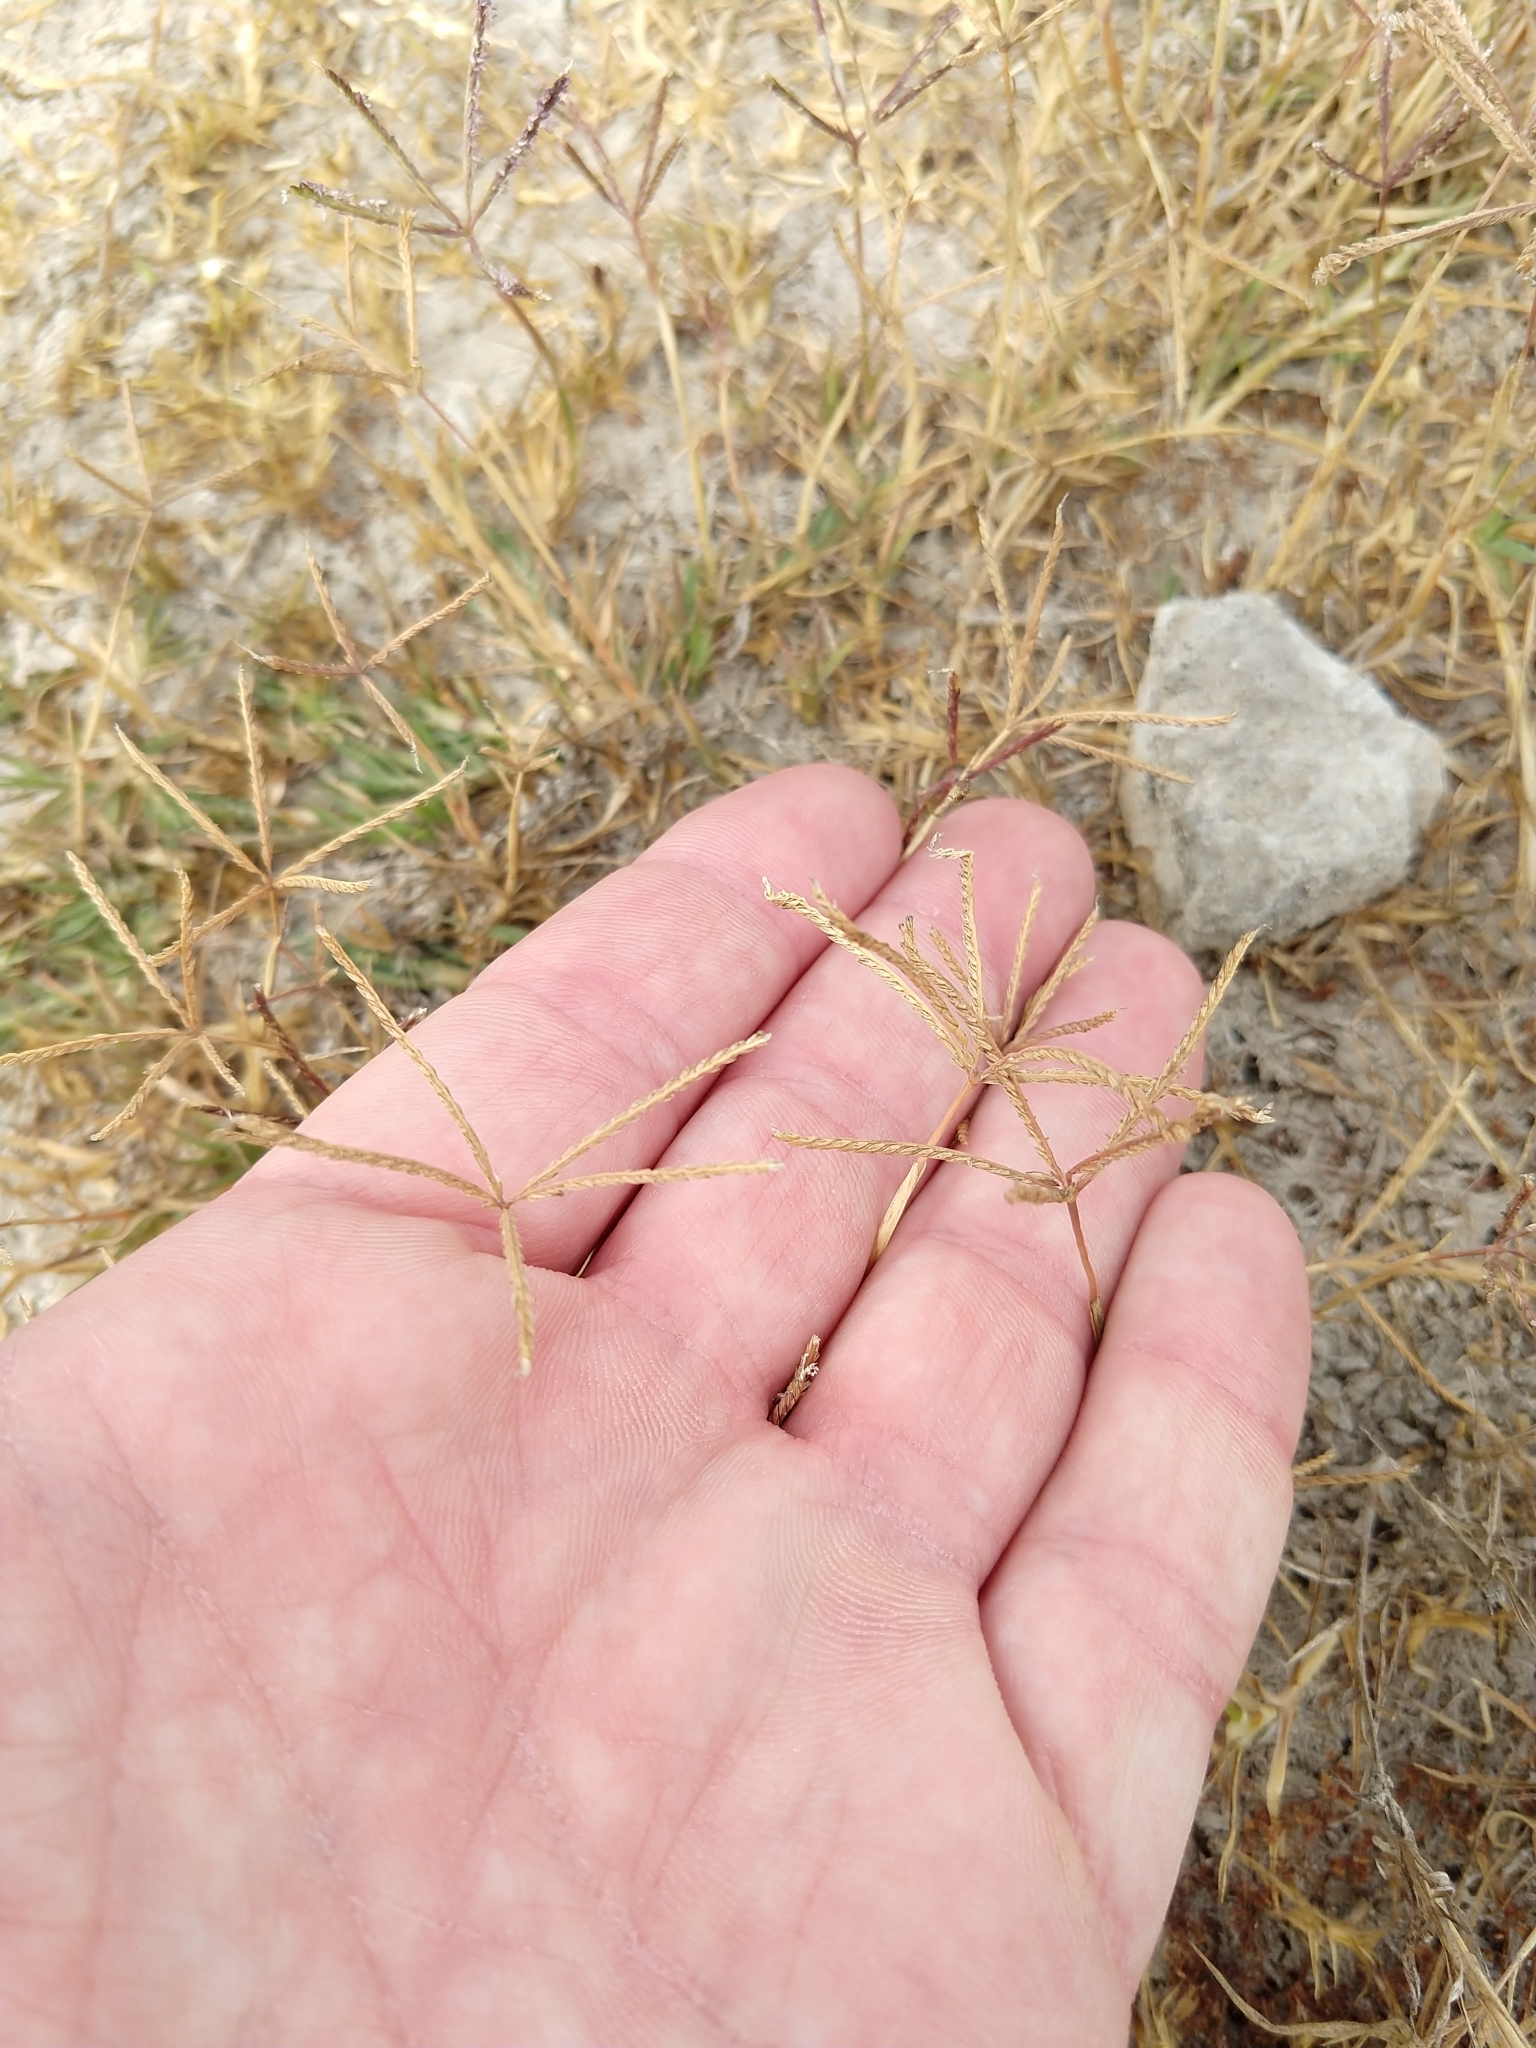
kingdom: Plantae
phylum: Tracheophyta
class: Liliopsida
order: Poales
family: Poaceae
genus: Cynodon
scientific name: Cynodon dactylon
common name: Bermuda grass
